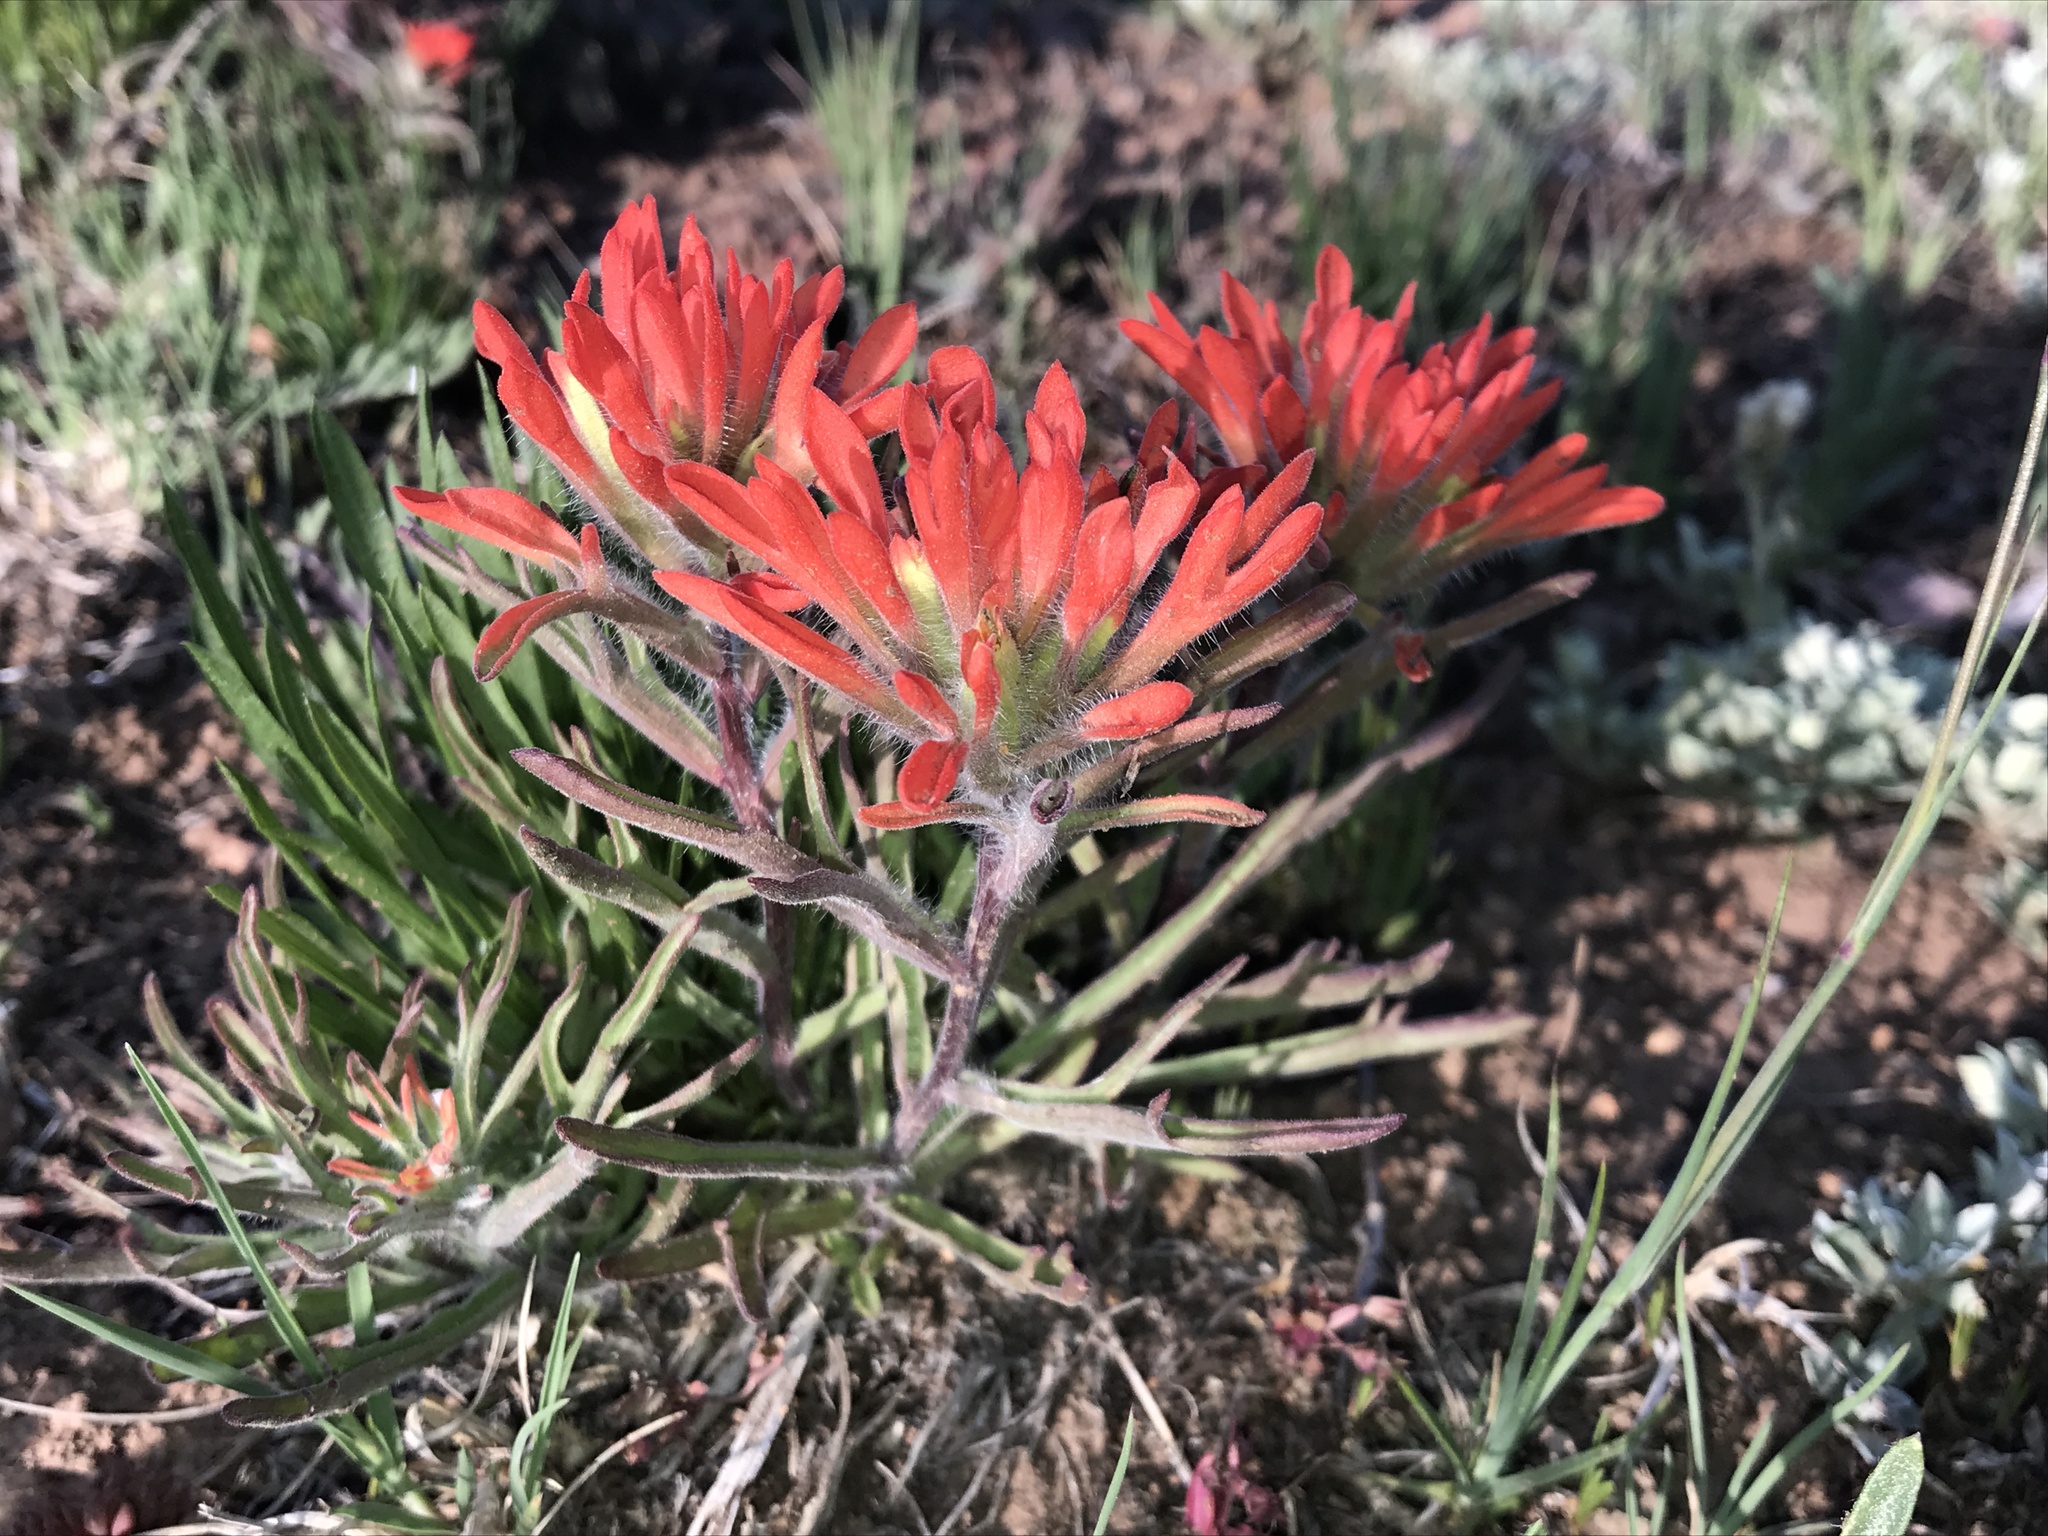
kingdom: Plantae
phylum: Tracheophyta
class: Magnoliopsida
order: Lamiales
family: Orobanchaceae
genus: Castilleja
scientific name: Castilleja chromosa
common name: Desert paintbrush
